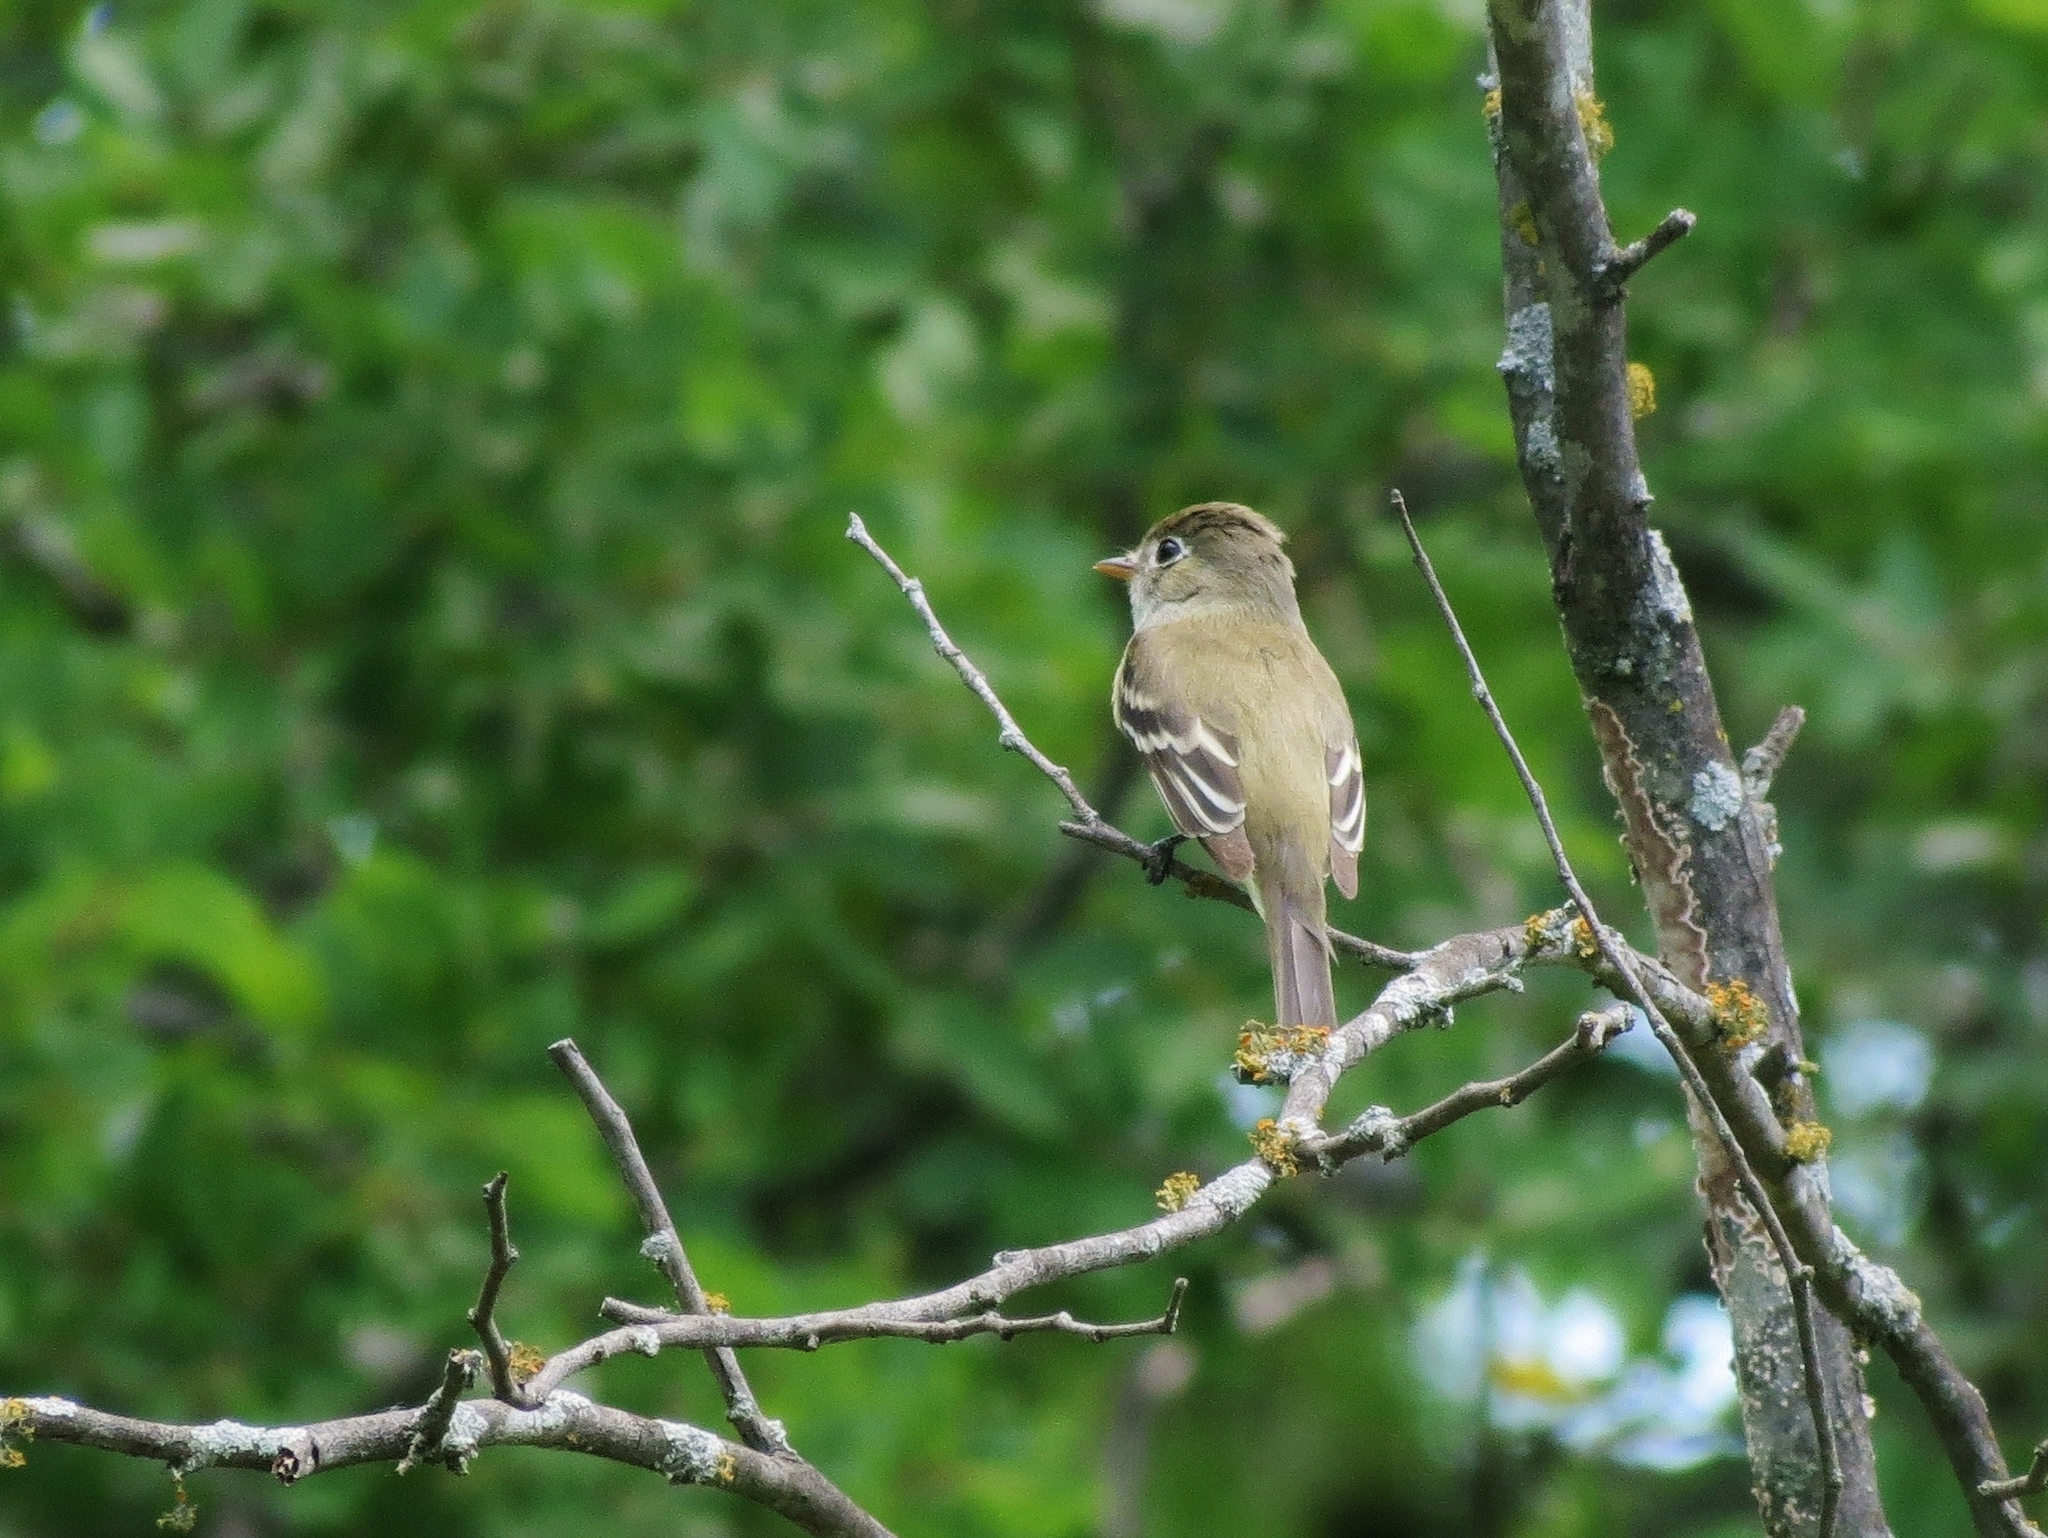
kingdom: Animalia
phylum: Chordata
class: Aves
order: Passeriformes
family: Tyrannidae
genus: Empidonax
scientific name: Empidonax minimus
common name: Least flycatcher
